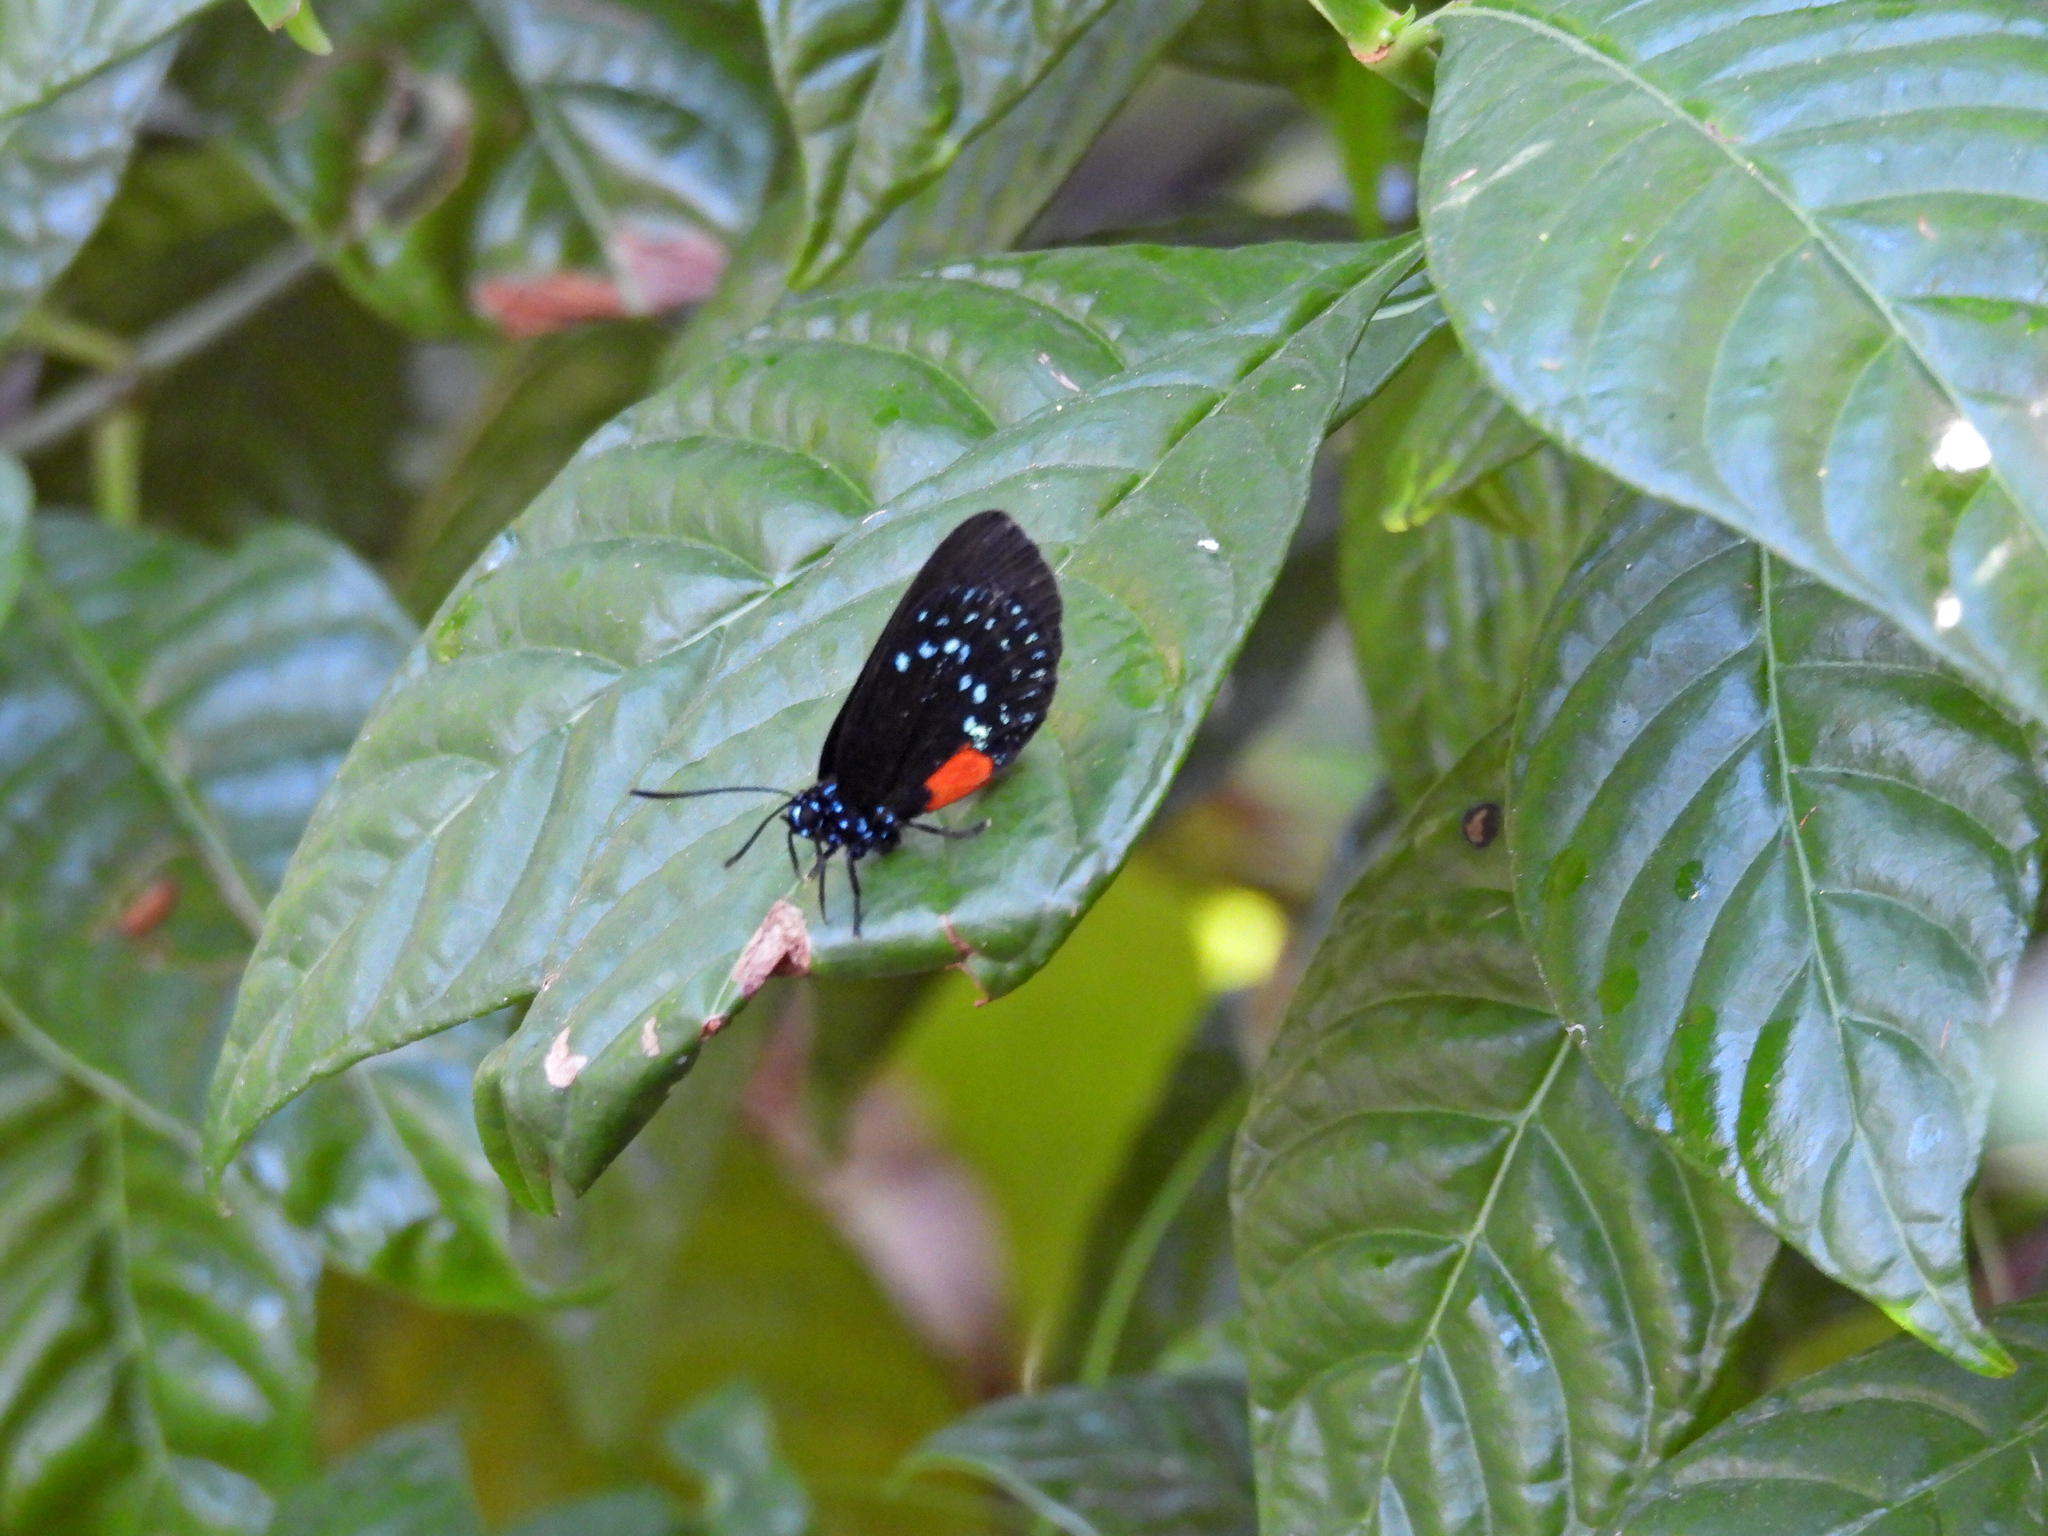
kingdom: Animalia
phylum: Arthropoda
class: Insecta
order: Lepidoptera
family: Lycaenidae
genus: Eumaeus
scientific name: Eumaeus atala
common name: Atala
